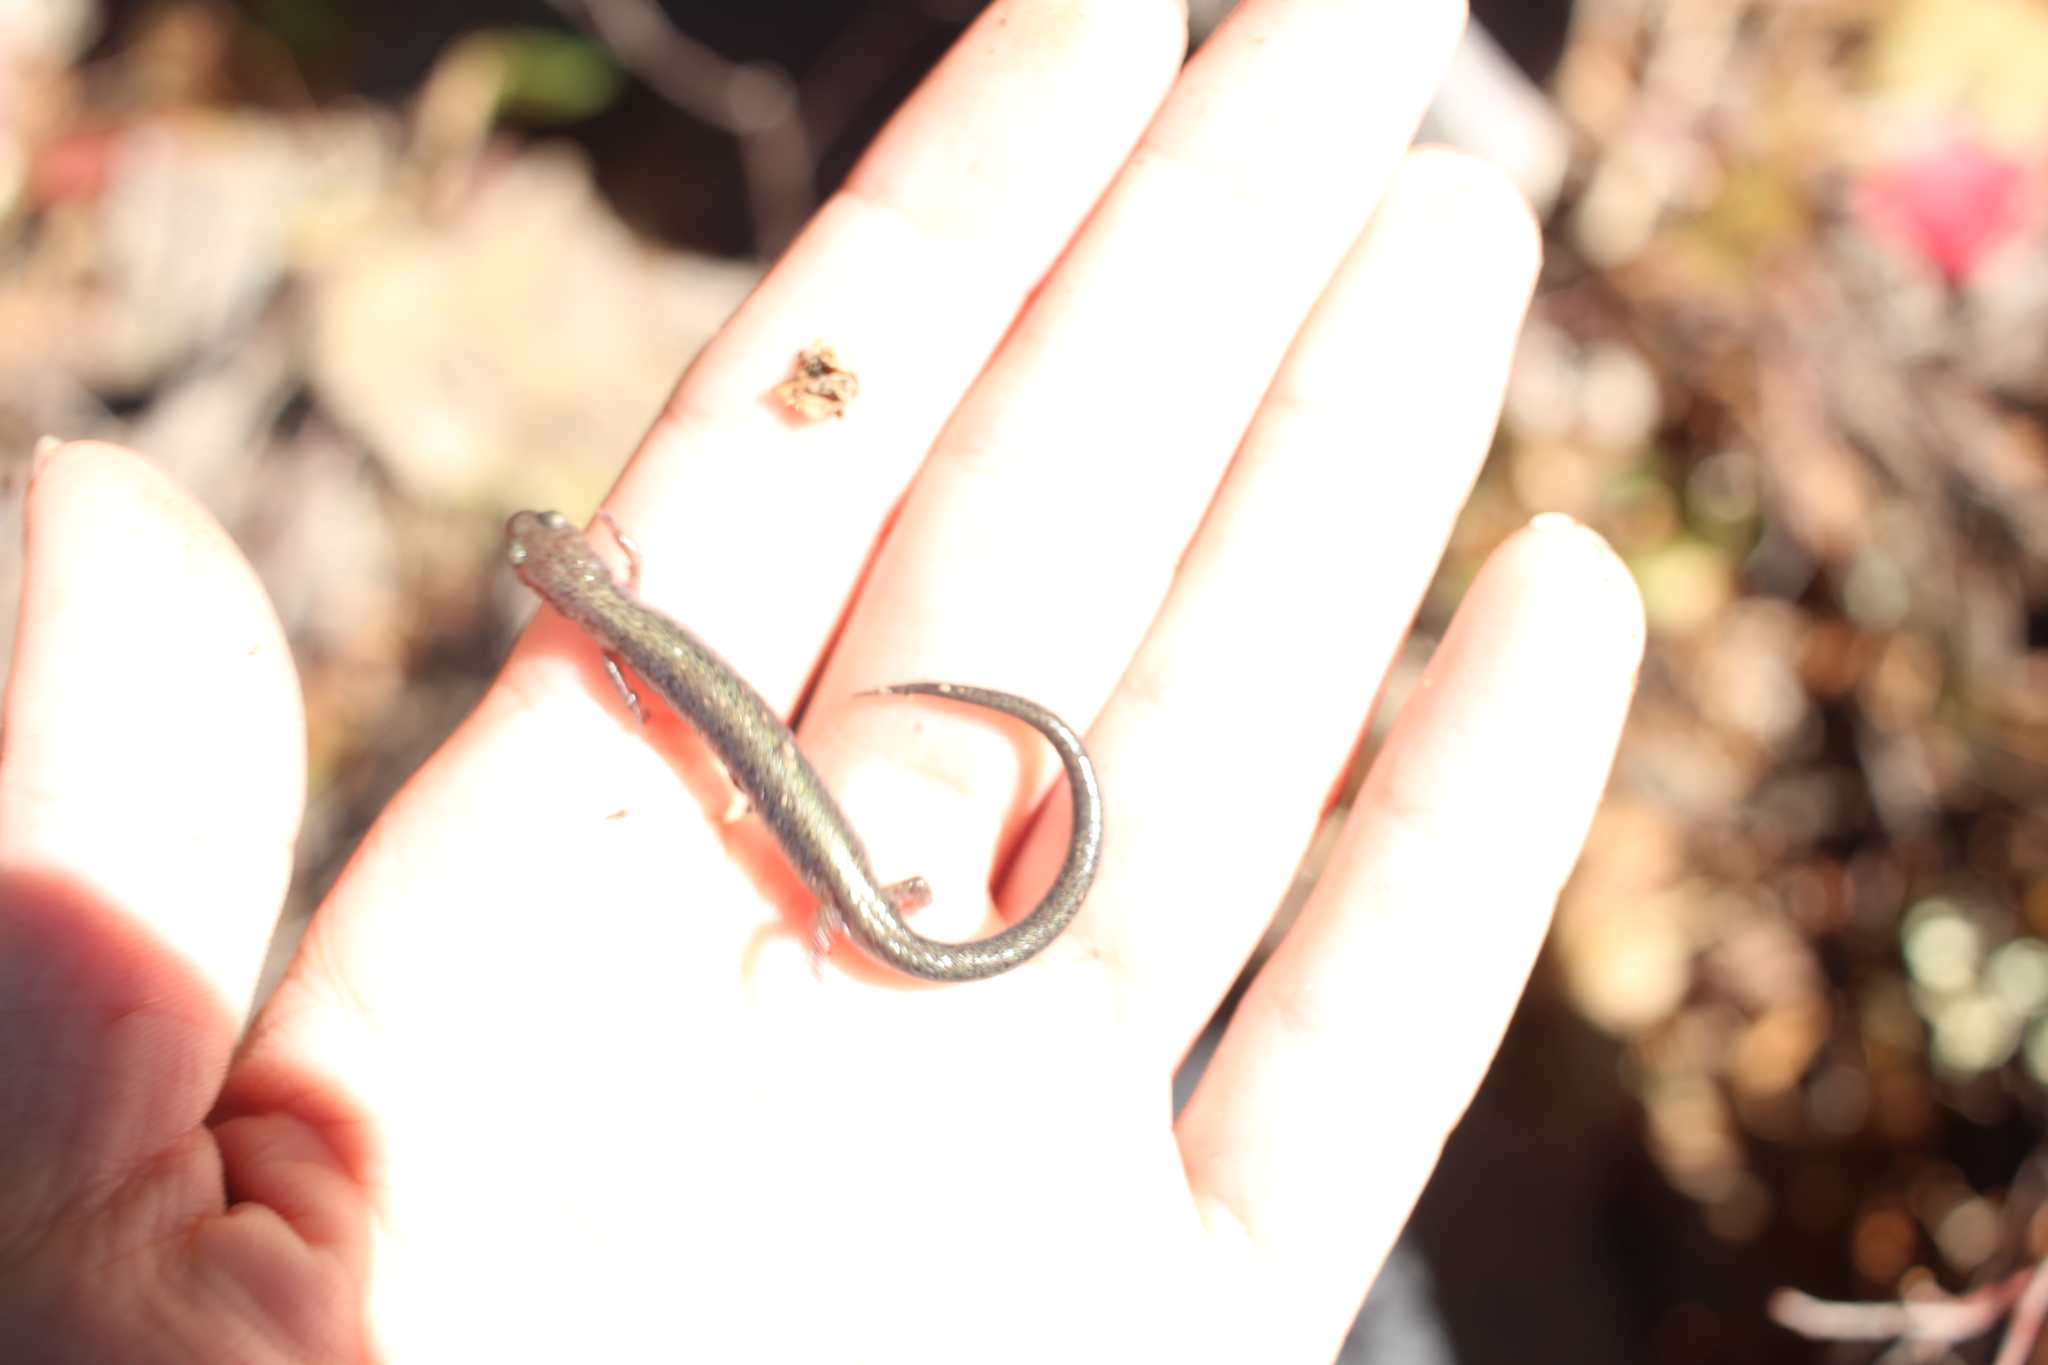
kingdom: Animalia
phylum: Chordata
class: Amphibia
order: Caudata
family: Plethodontidae
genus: Plethodon
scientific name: Plethodon cinereus
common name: Redback salamander
